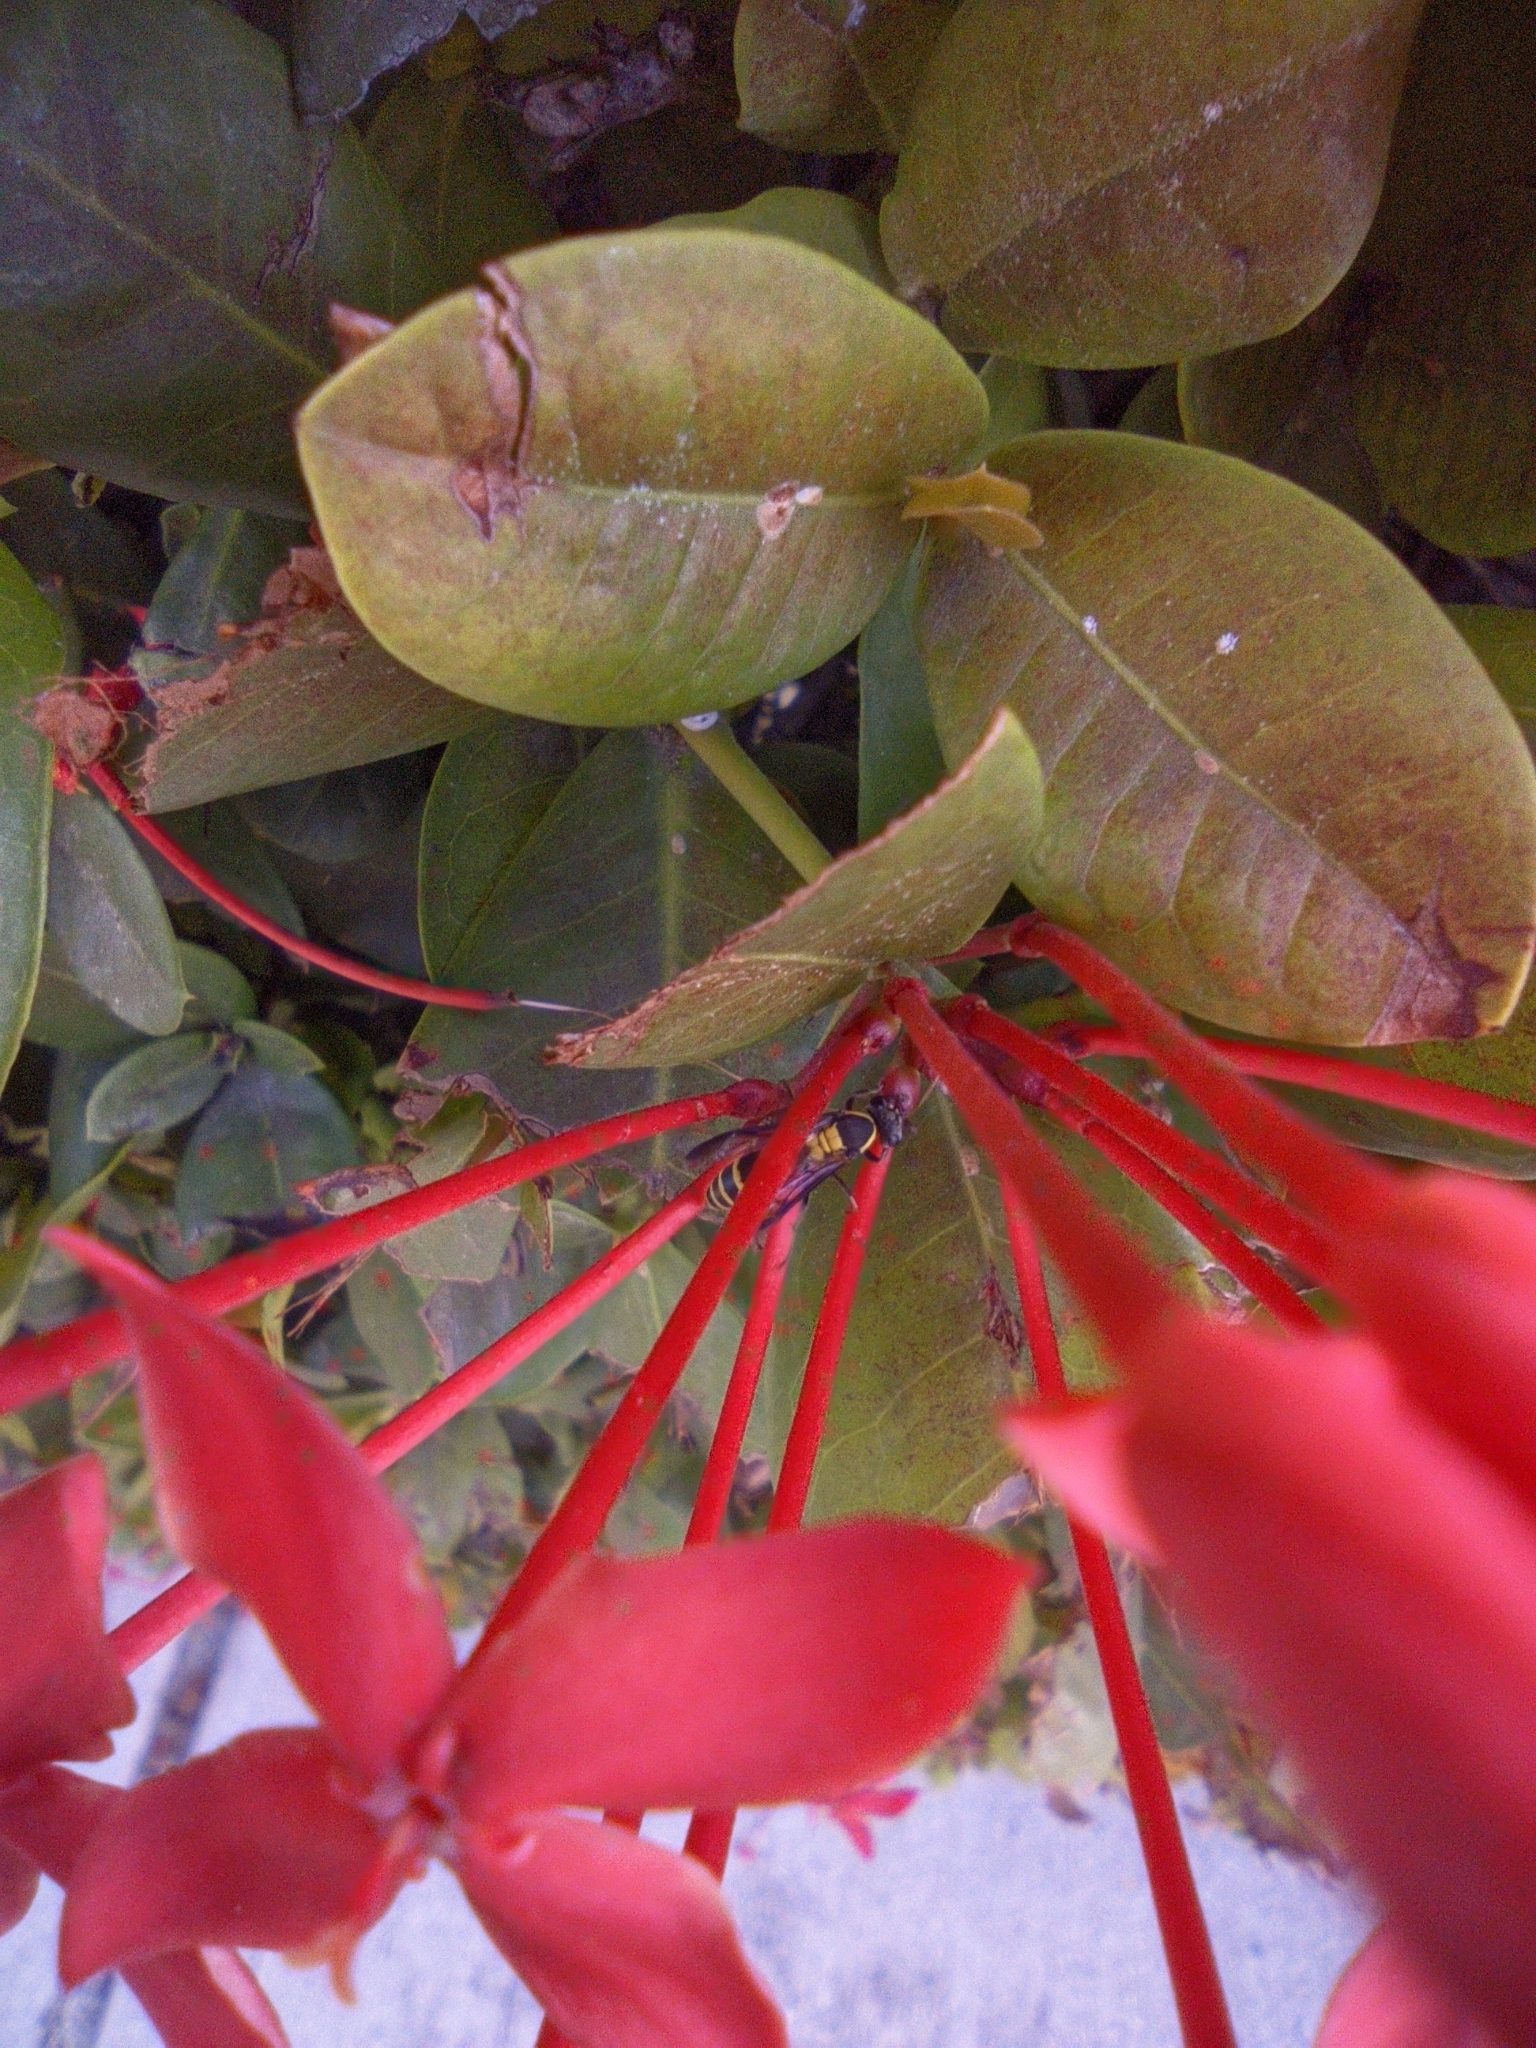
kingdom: Animalia
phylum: Arthropoda
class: Insecta
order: Hymenoptera
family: Eumenidae
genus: Polybia
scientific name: Polybia occidentalis
